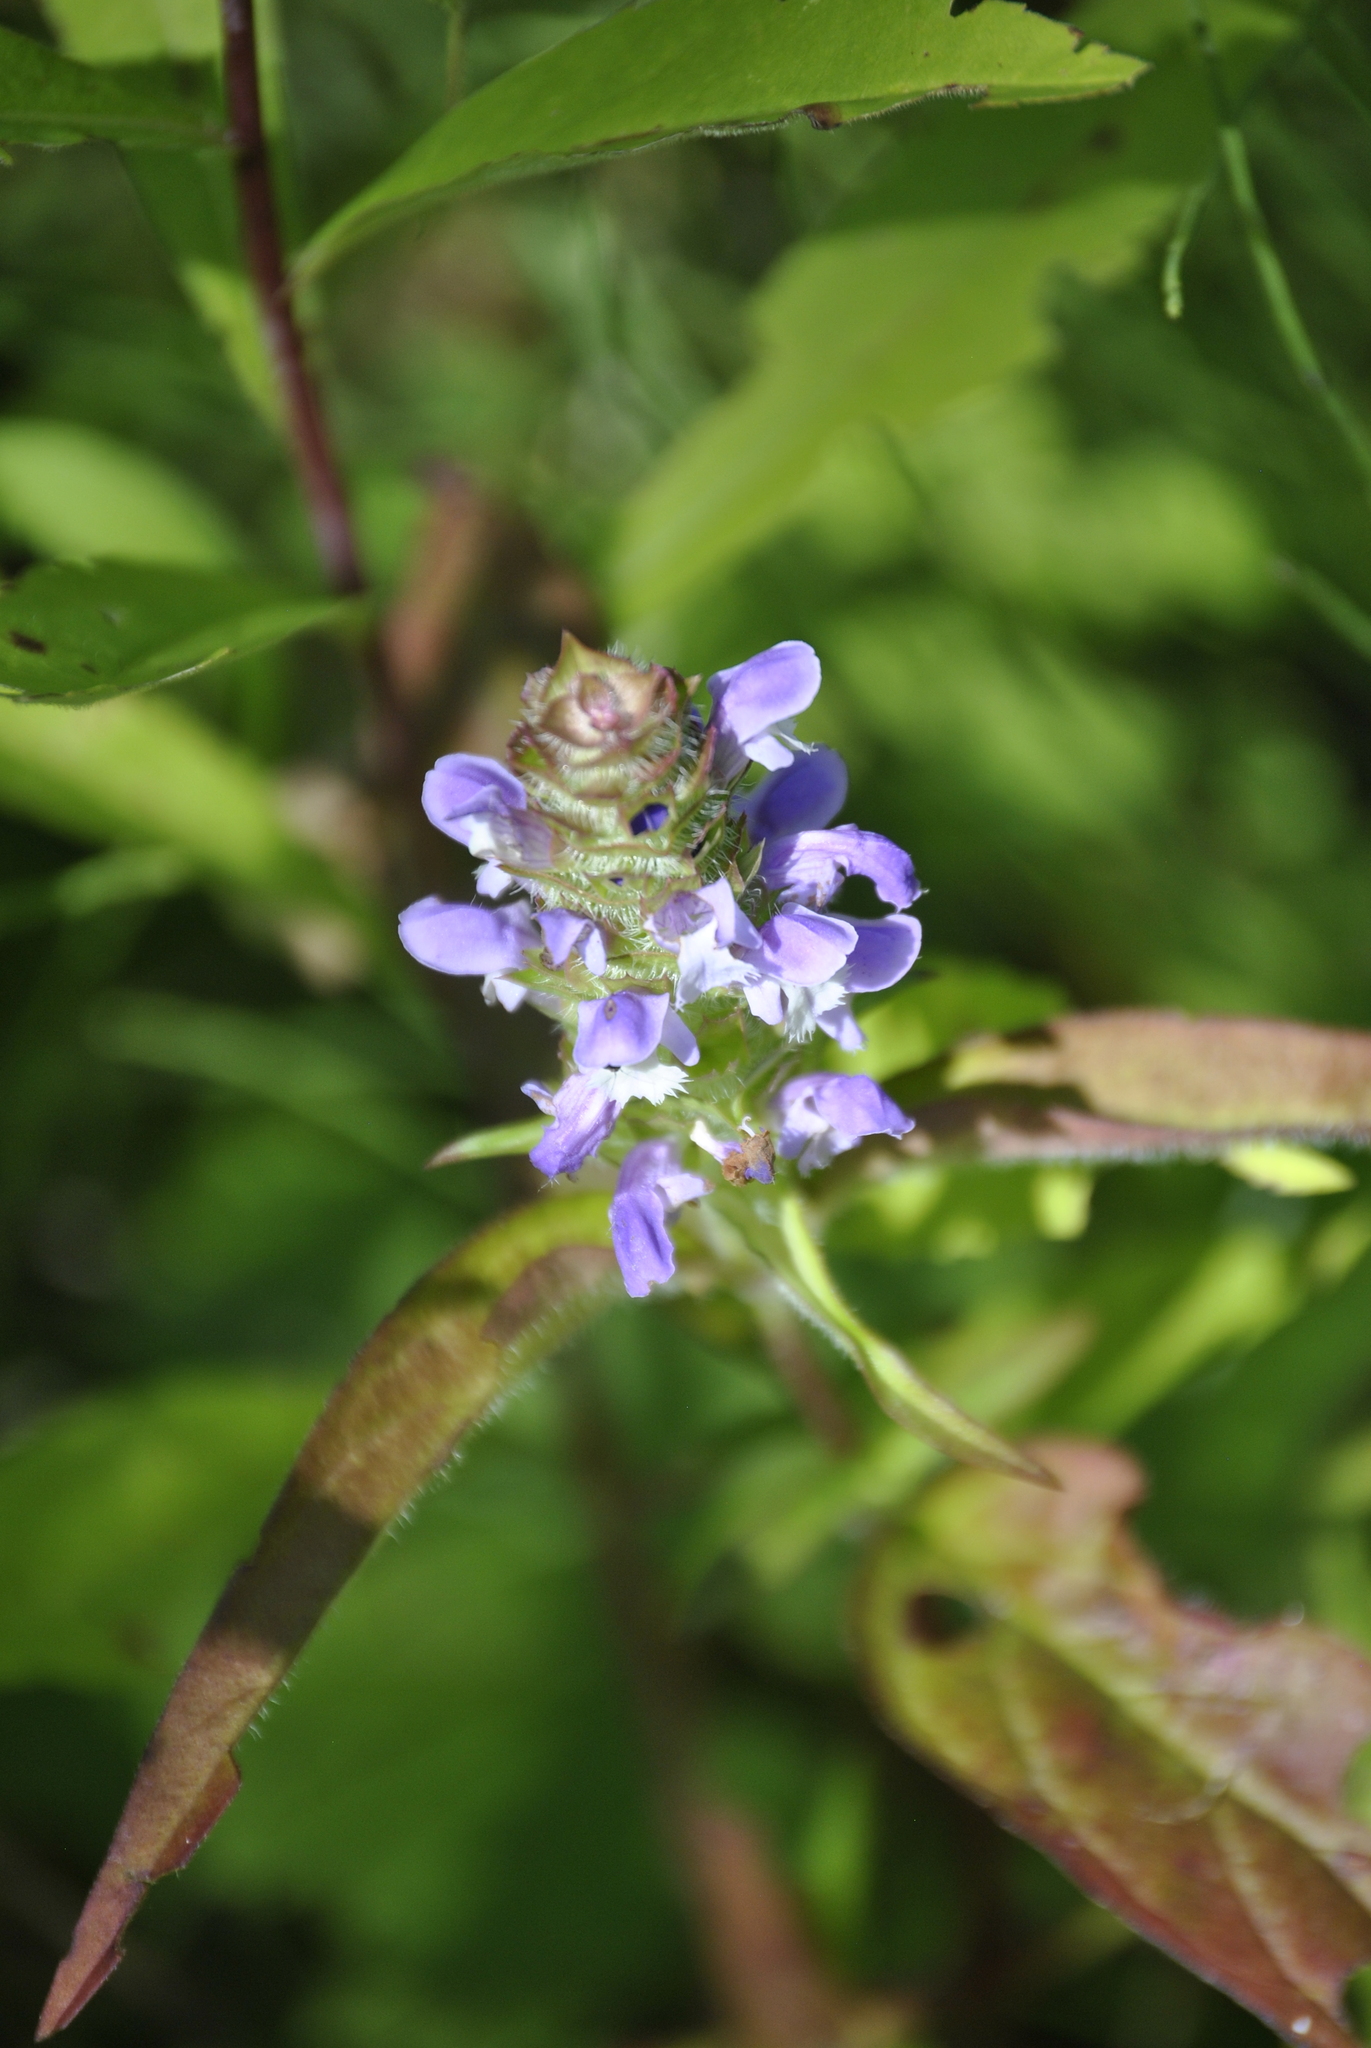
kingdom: Plantae
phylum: Tracheophyta
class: Magnoliopsida
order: Lamiales
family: Lamiaceae
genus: Prunella
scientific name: Prunella vulgaris
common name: Heal-all
